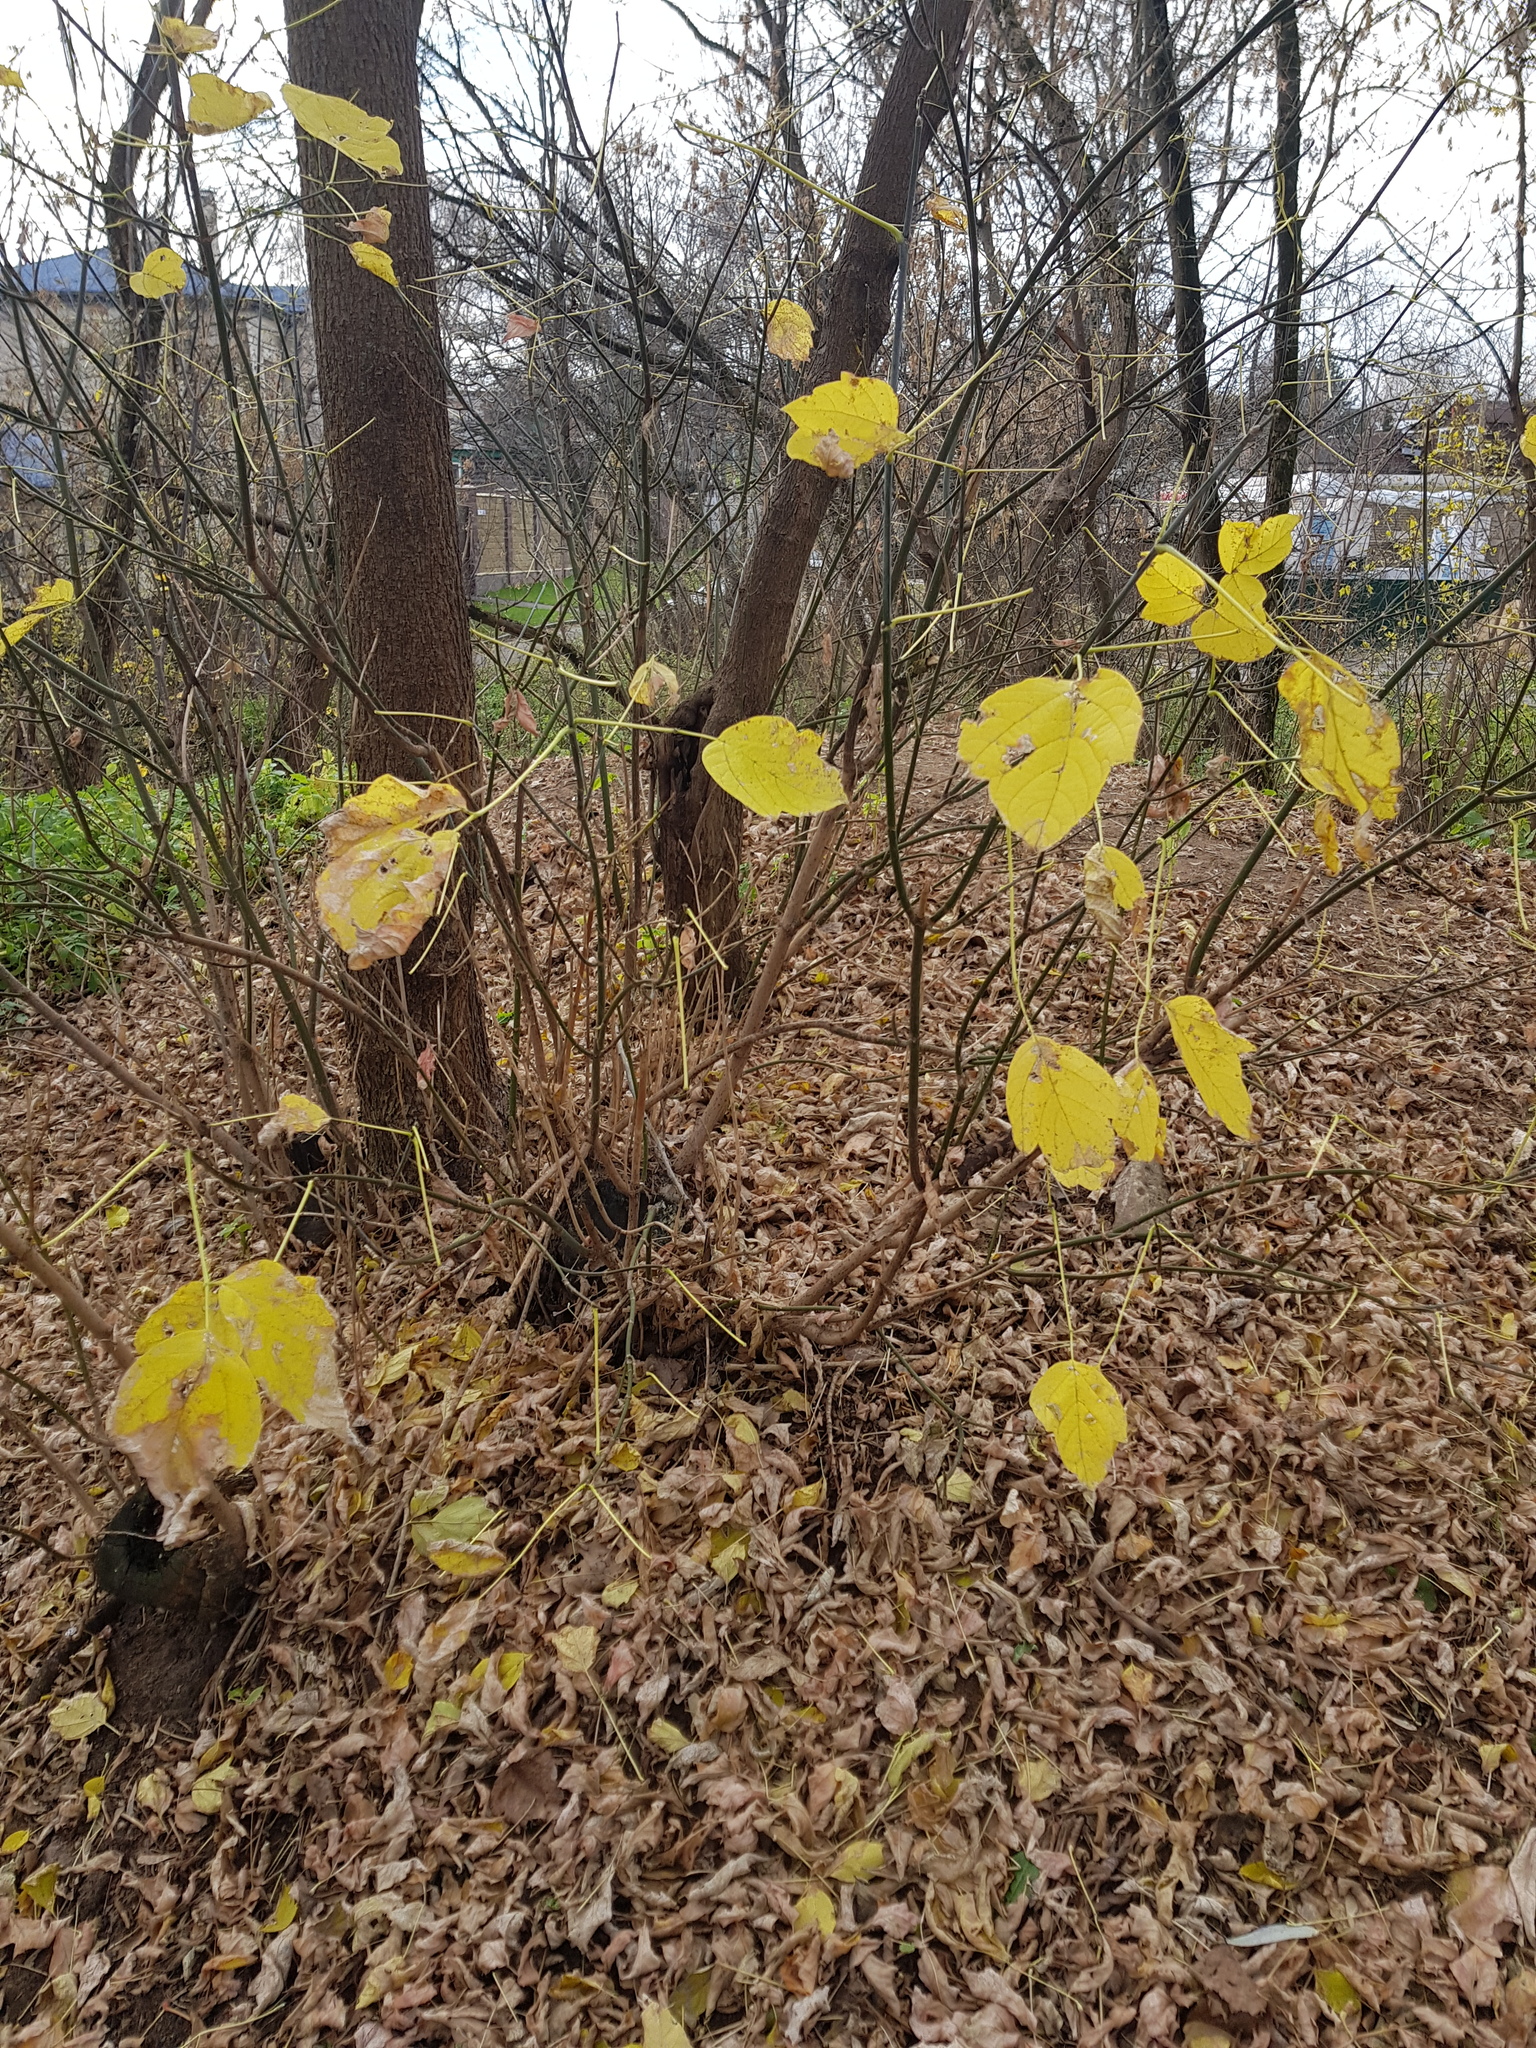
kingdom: Plantae
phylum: Tracheophyta
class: Magnoliopsida
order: Sapindales
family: Sapindaceae
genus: Acer
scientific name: Acer negundo
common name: Ashleaf maple
